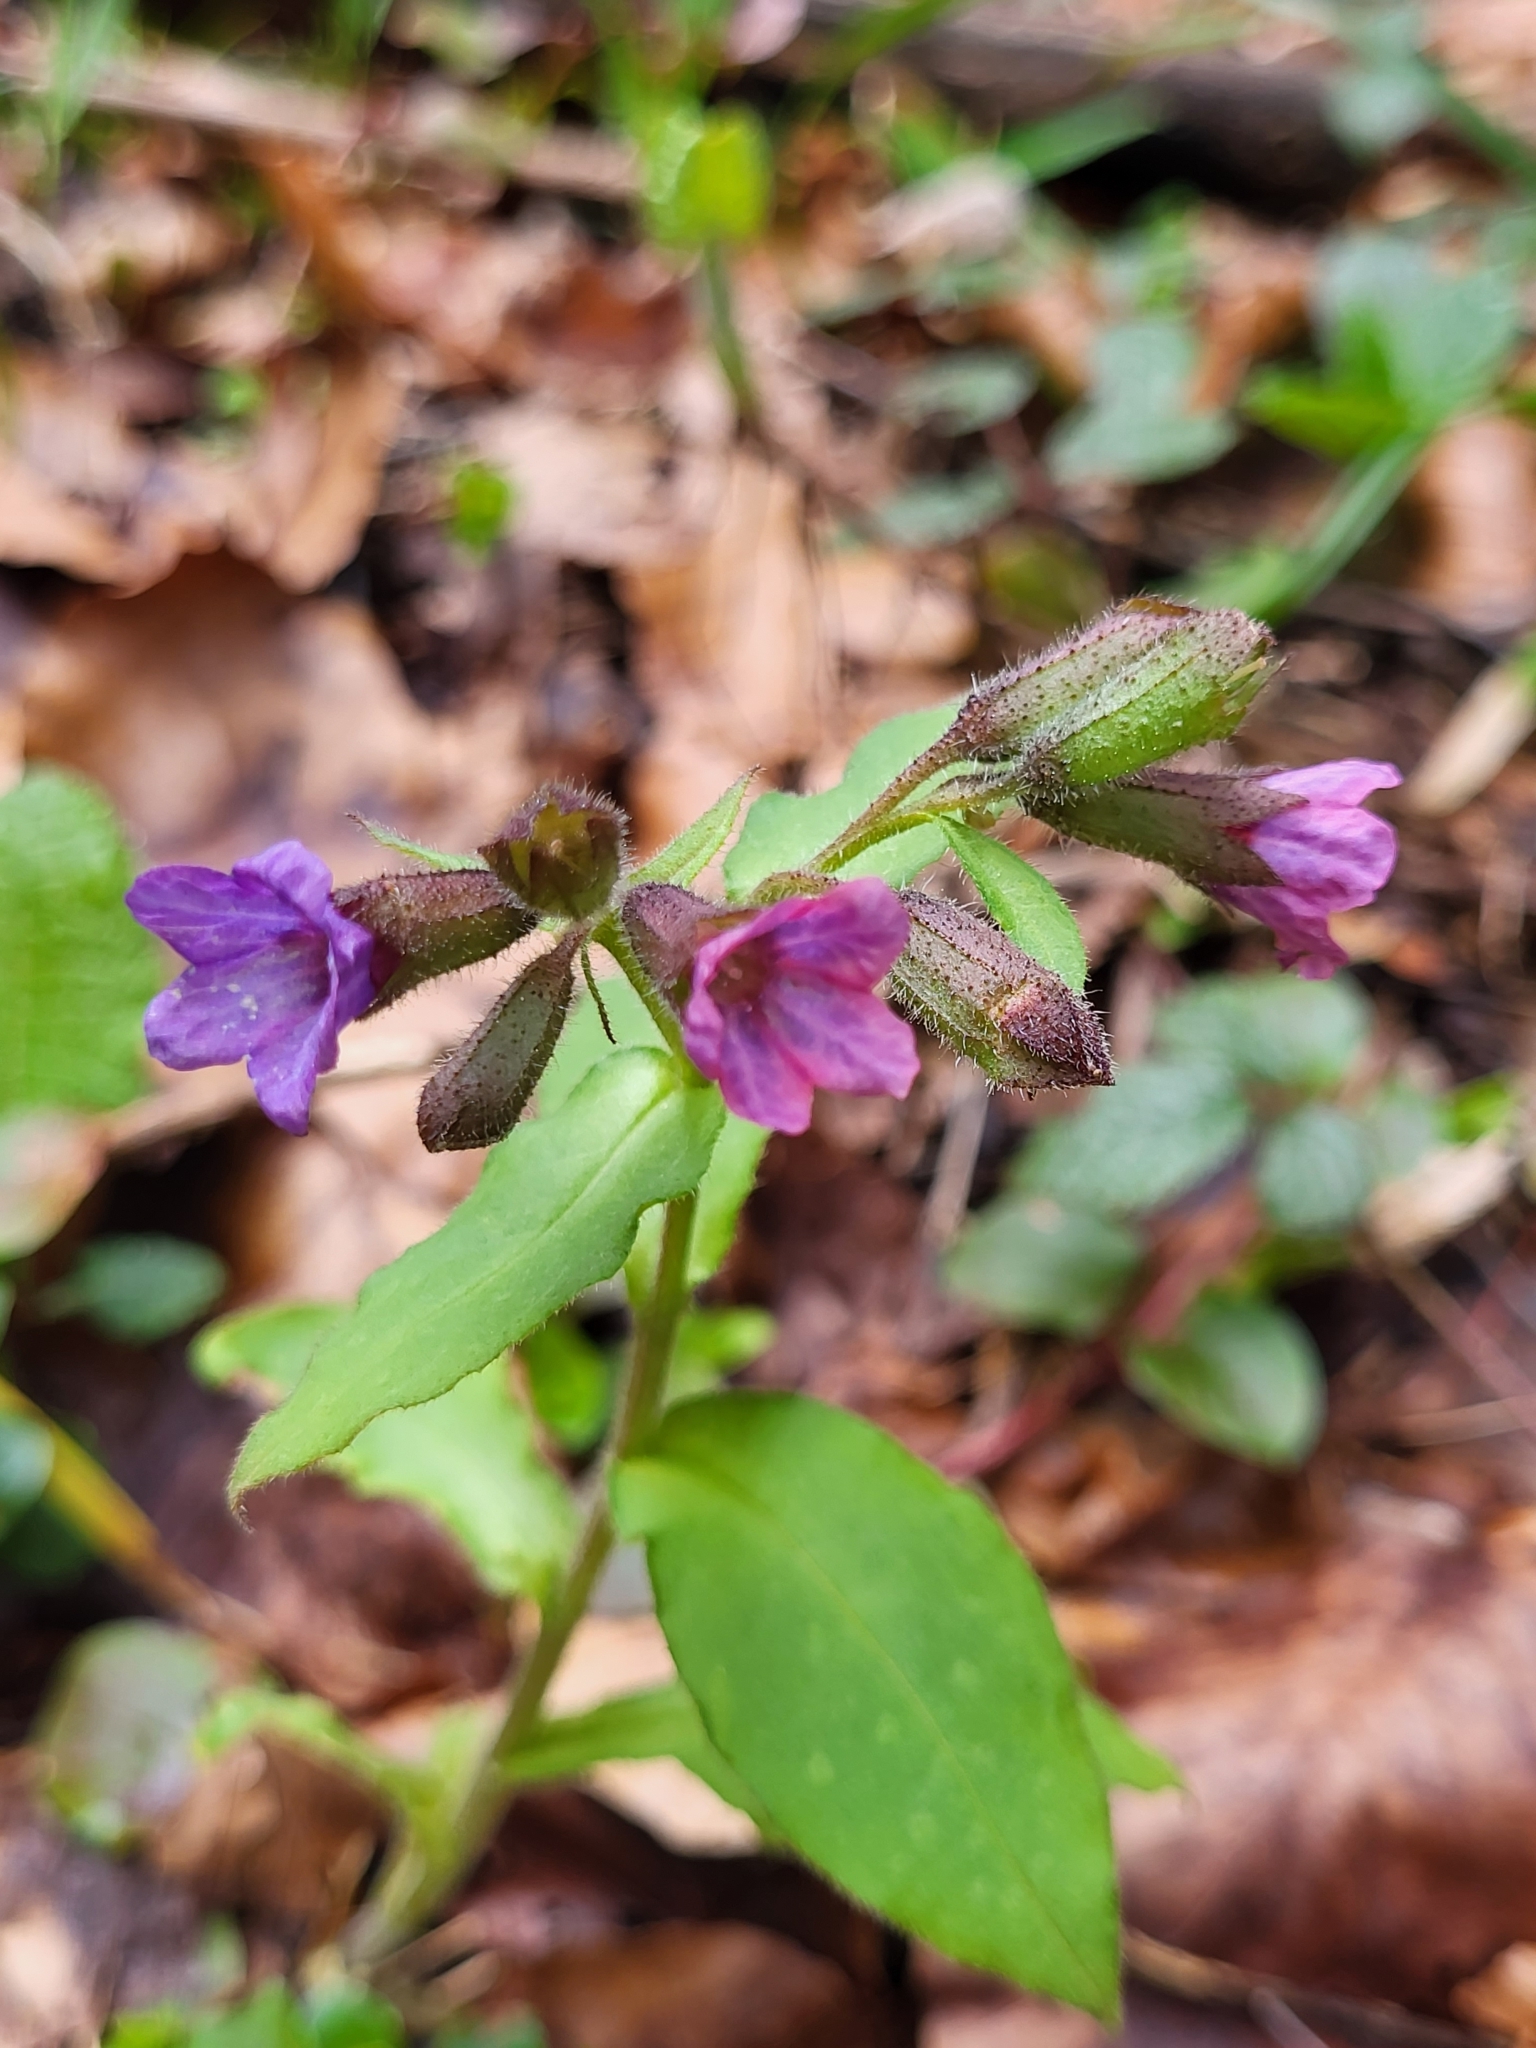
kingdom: Plantae
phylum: Tracheophyta
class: Magnoliopsida
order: Boraginales
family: Boraginaceae
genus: Pulmonaria
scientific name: Pulmonaria officinalis
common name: Lungwort
